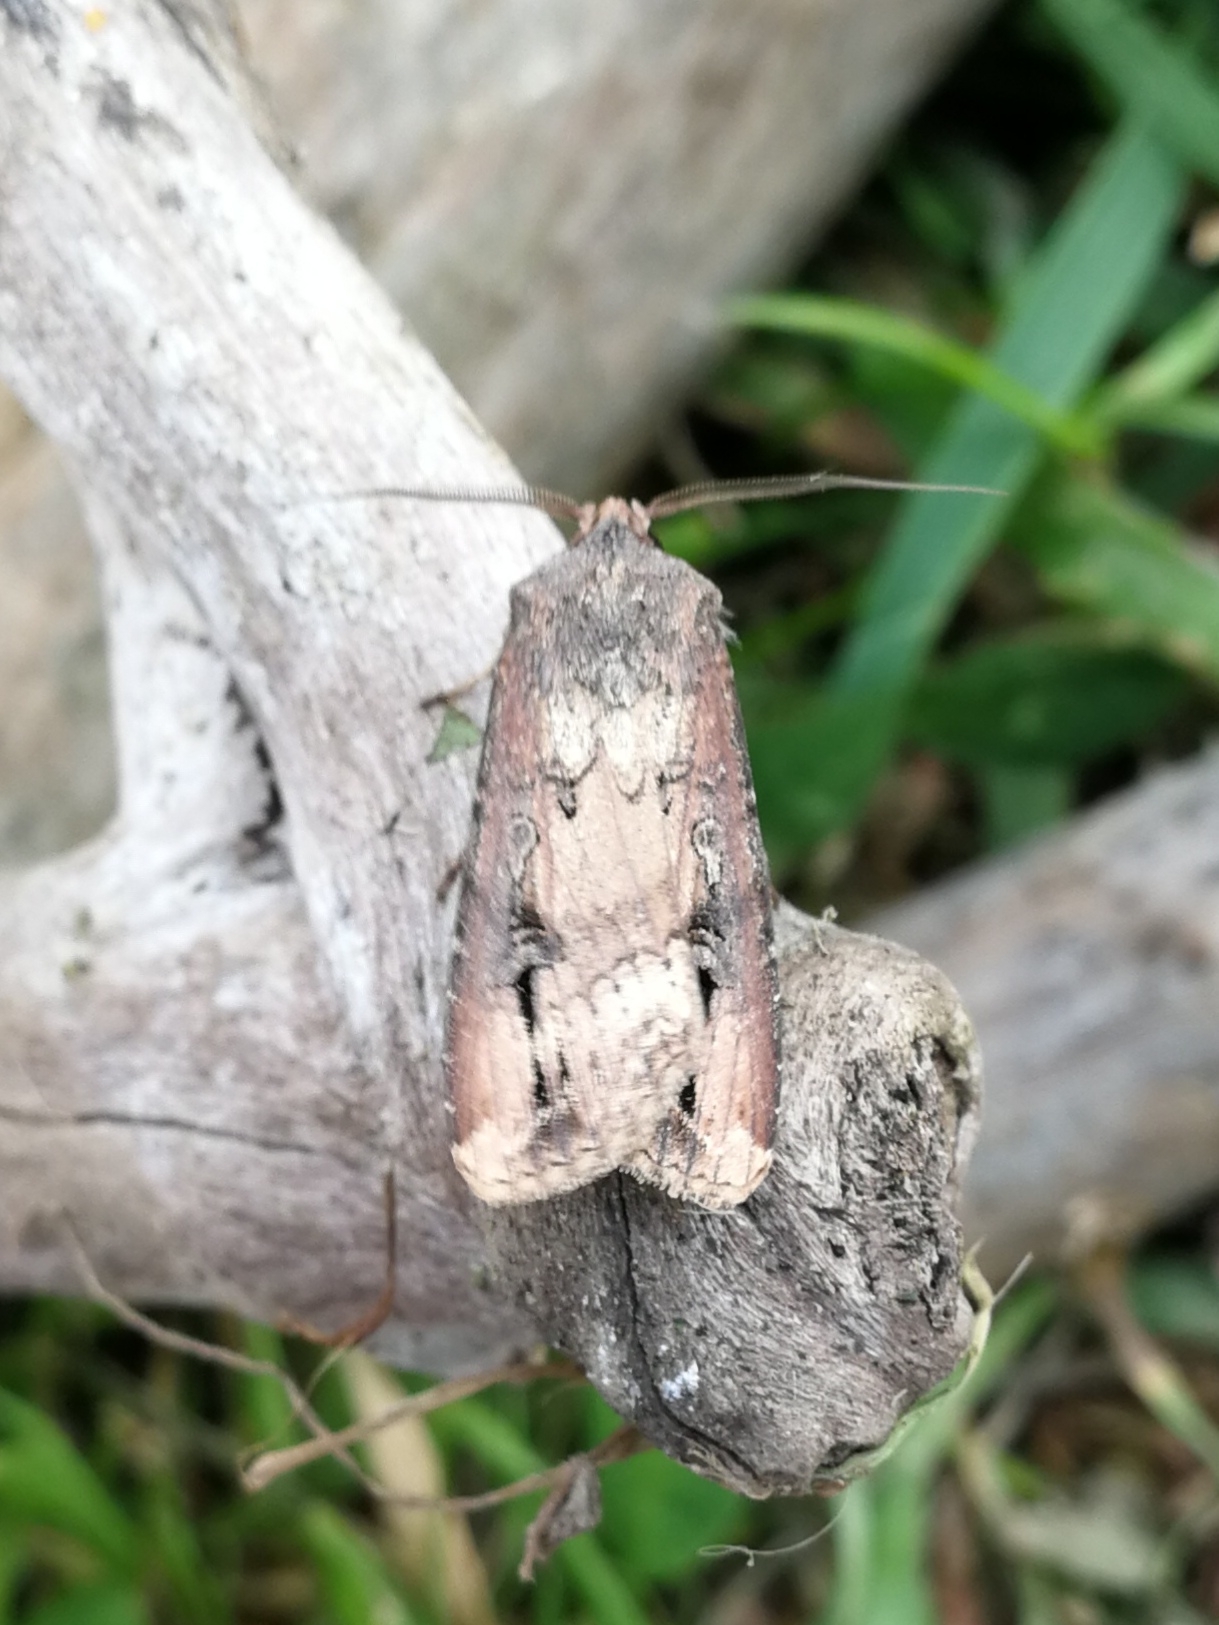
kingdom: Animalia
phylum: Arthropoda
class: Insecta
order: Lepidoptera
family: Noctuidae
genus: Agrotis
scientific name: Agrotis ipsilon
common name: Dark sword-grass
